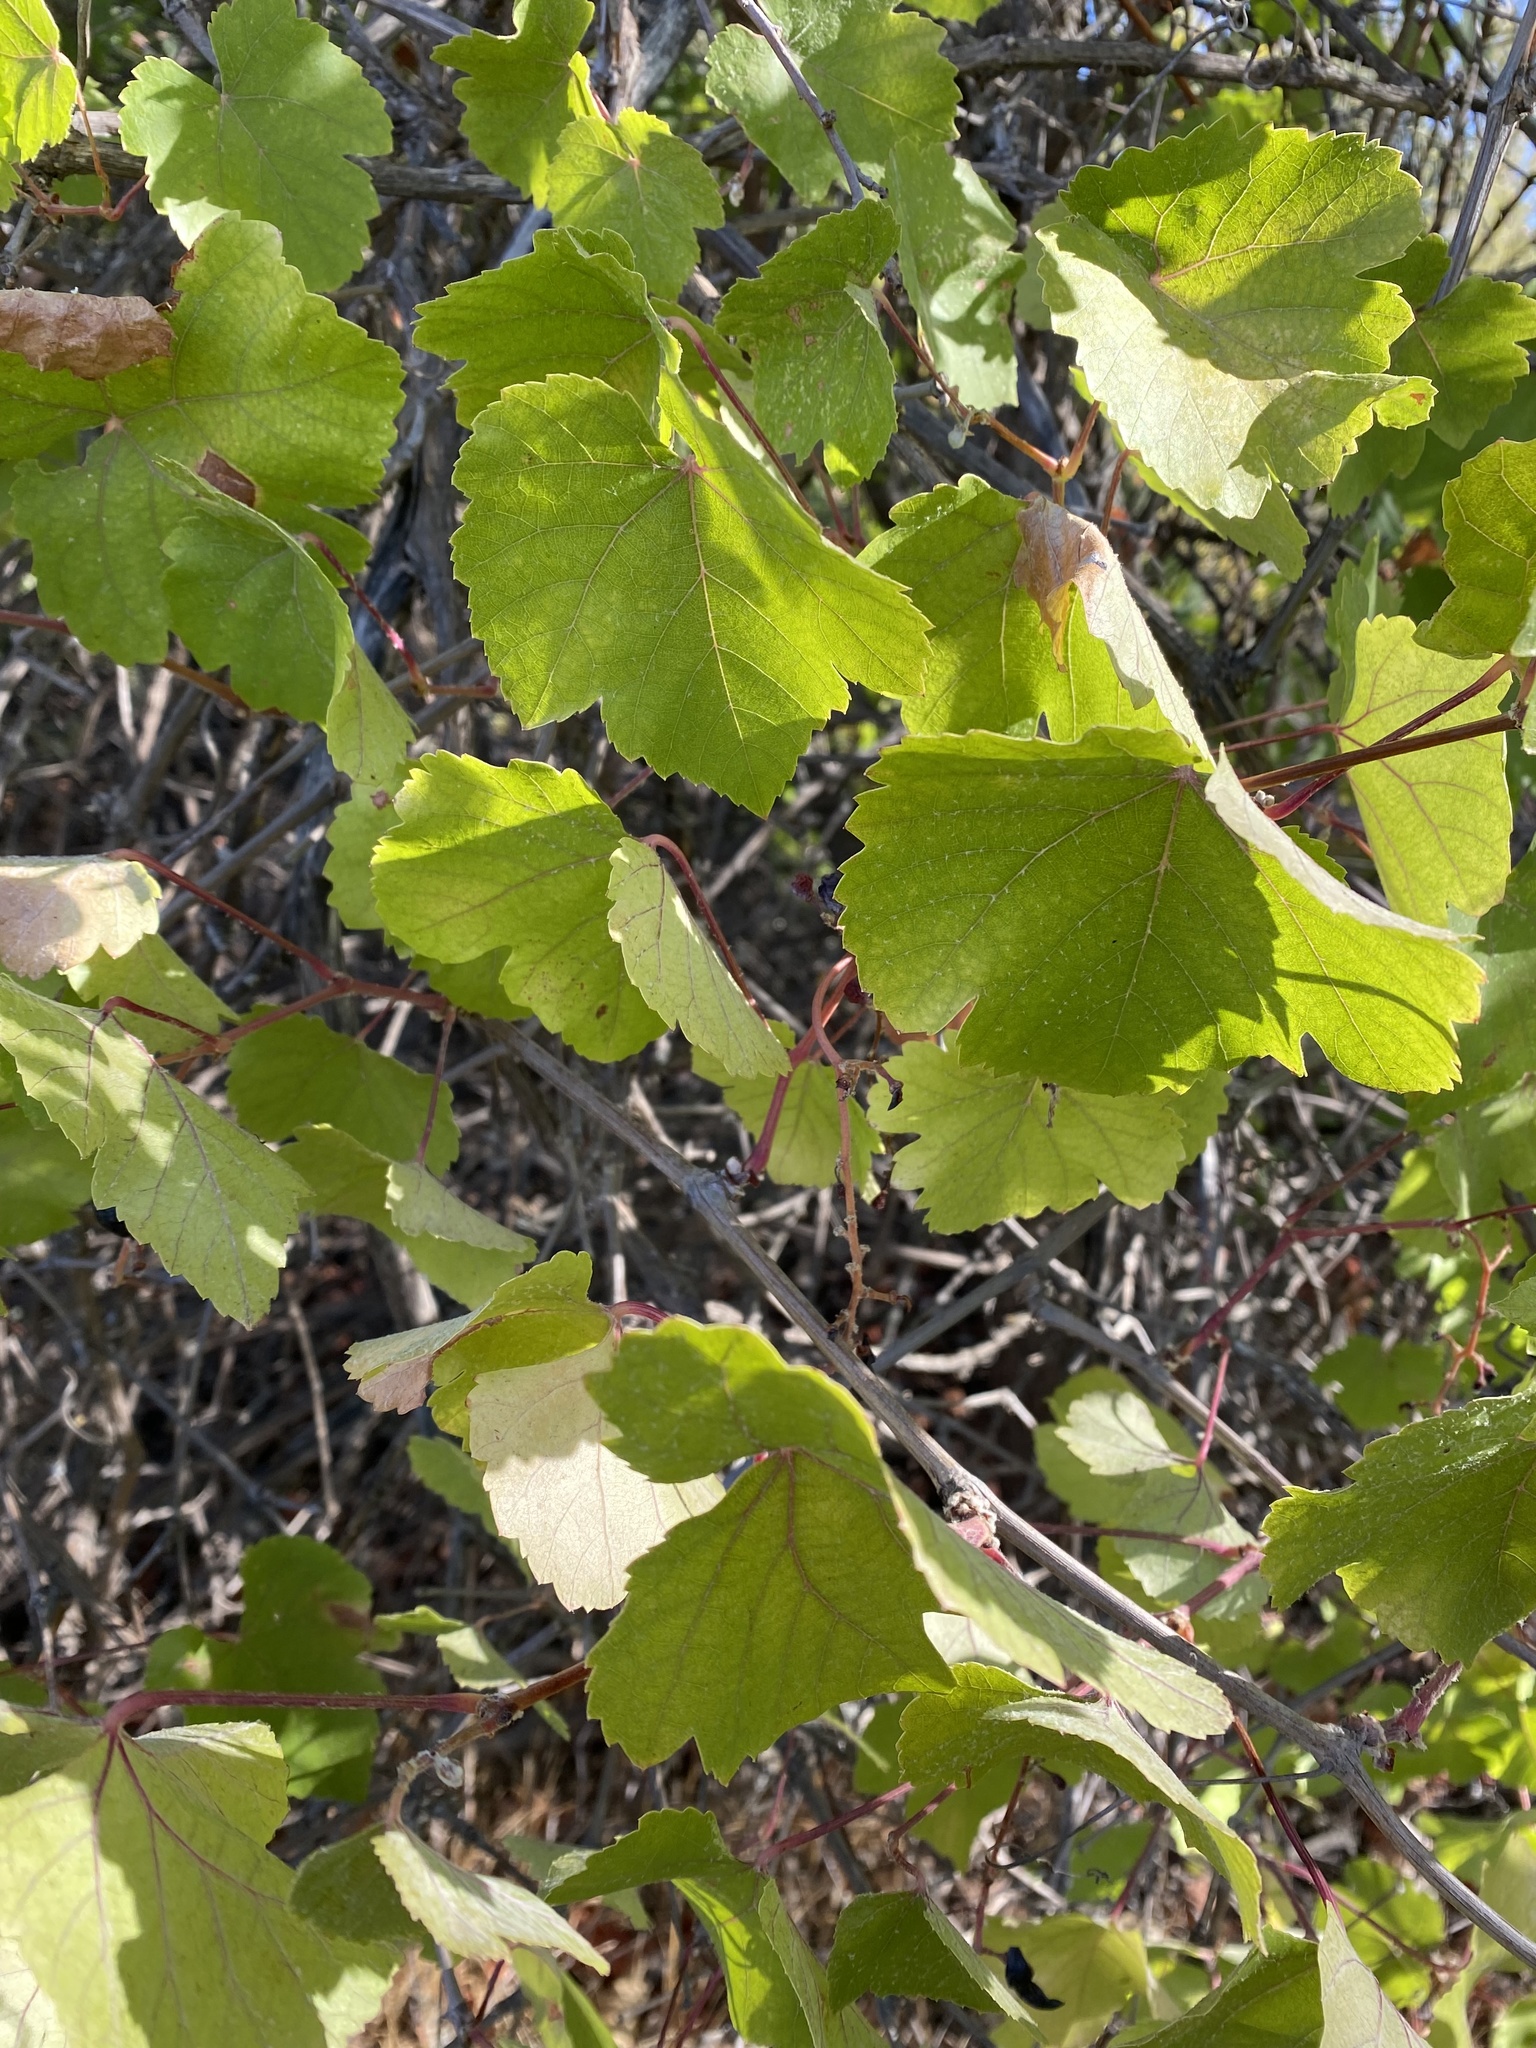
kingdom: Plantae
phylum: Tracheophyta
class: Magnoliopsida
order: Vitales
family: Vitaceae
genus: Vitis
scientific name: Vitis californica
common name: California wild grape
